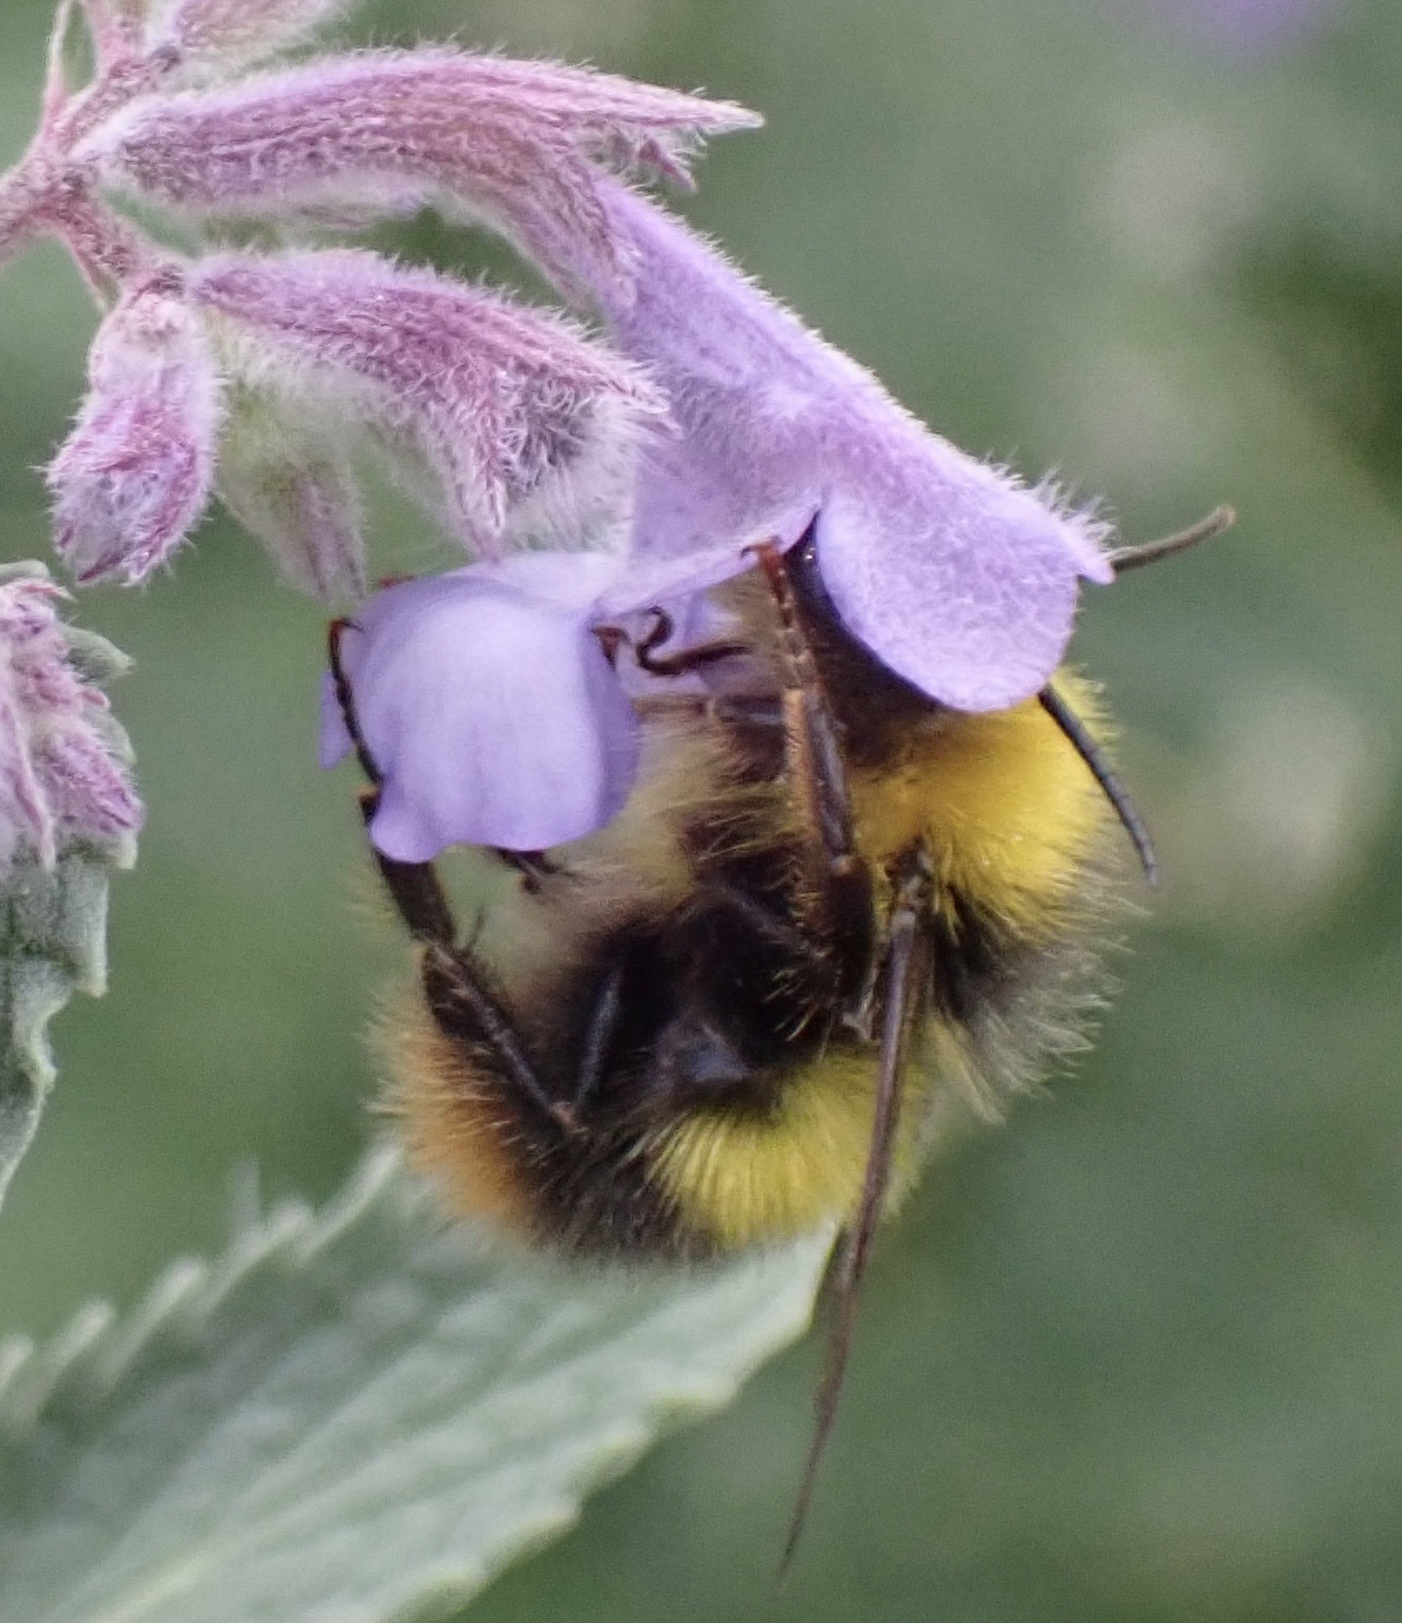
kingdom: Animalia
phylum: Arthropoda
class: Insecta
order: Hymenoptera
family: Apidae
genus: Bombus
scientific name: Bombus pratorum
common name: Early humble-bee
